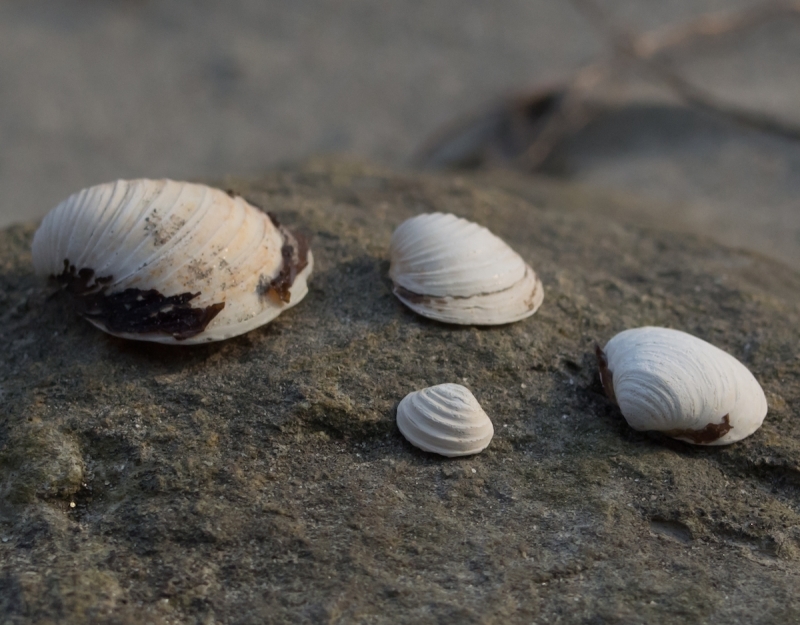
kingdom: Animalia
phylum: Mollusca
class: Bivalvia
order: Venerida
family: Cyrenidae
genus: Corbicula
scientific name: Corbicula fluminea
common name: Asian clam
